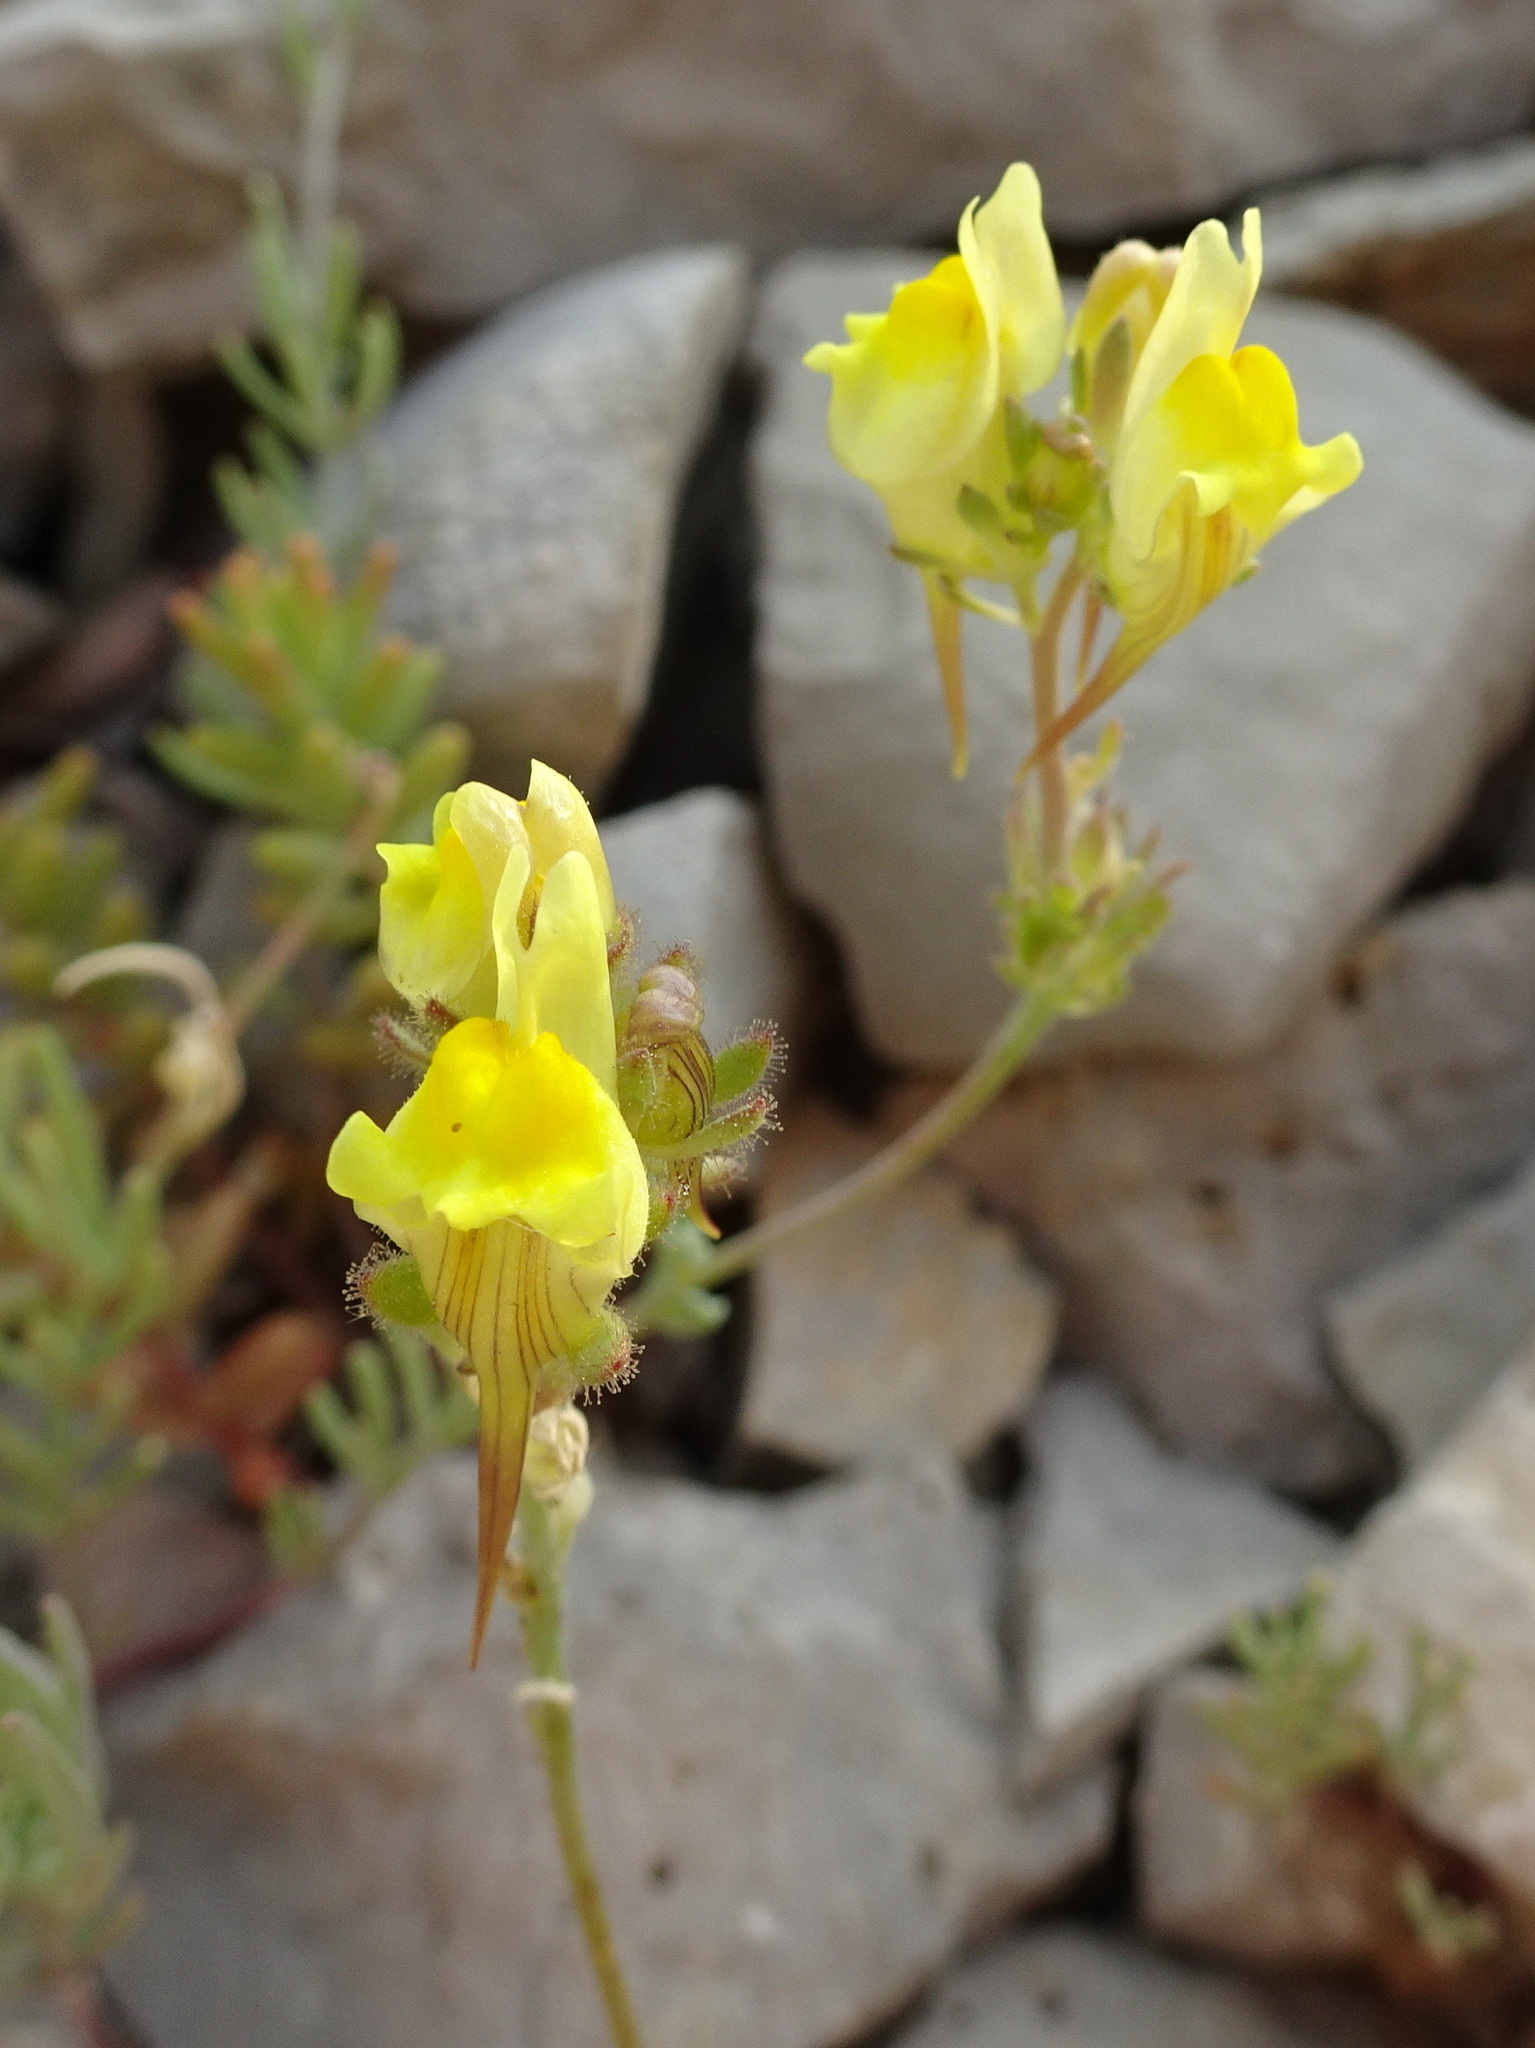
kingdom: Plantae
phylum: Tracheophyta
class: Magnoliopsida
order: Lamiales
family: Plantaginaceae
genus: Linaria
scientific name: Linaria supina
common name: Prostrate toadflax
